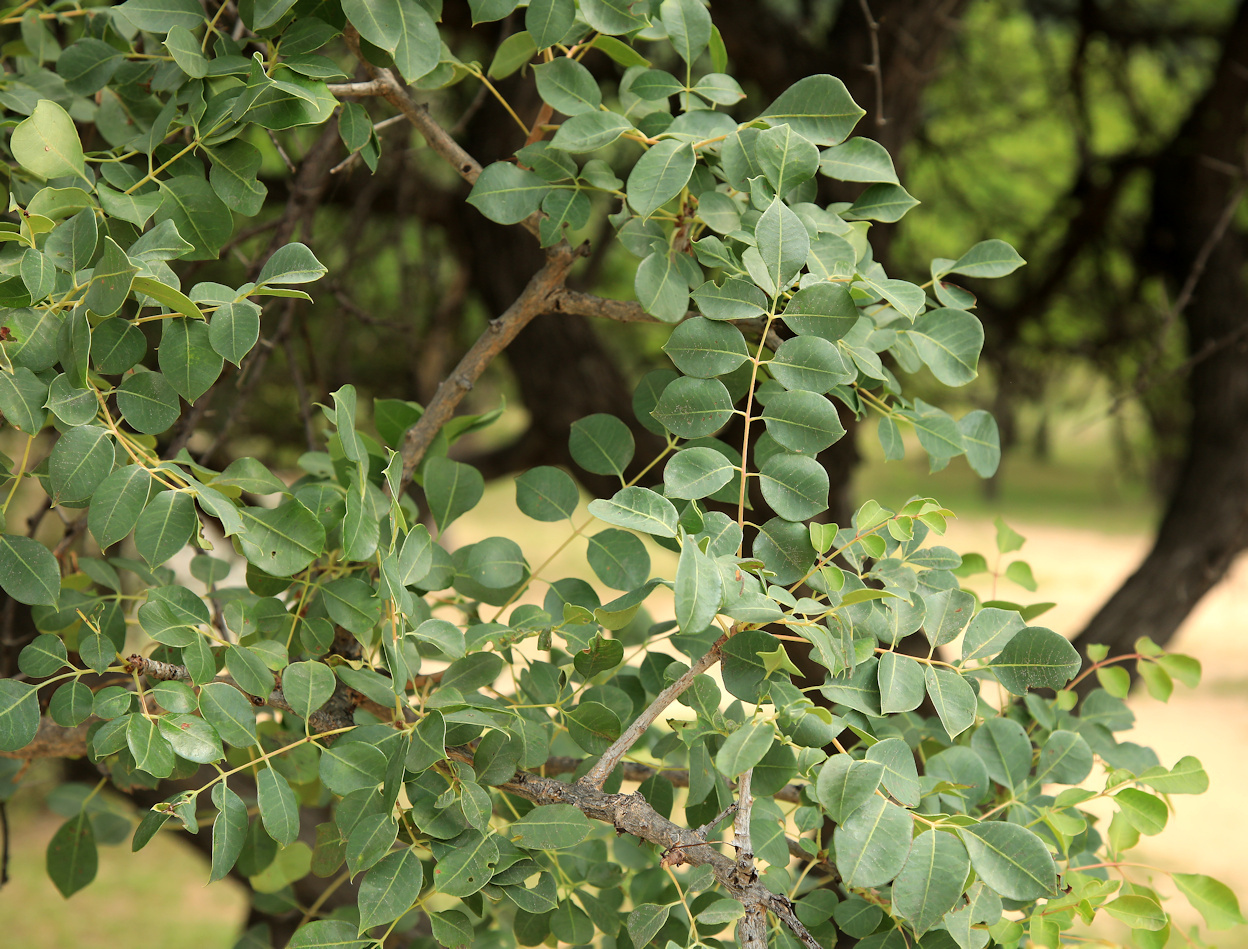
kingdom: Plantae
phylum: Tracheophyta
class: Magnoliopsida
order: Sapindales
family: Anacardiaceae
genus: Sclerocarya
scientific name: Sclerocarya birrea
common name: Marula
